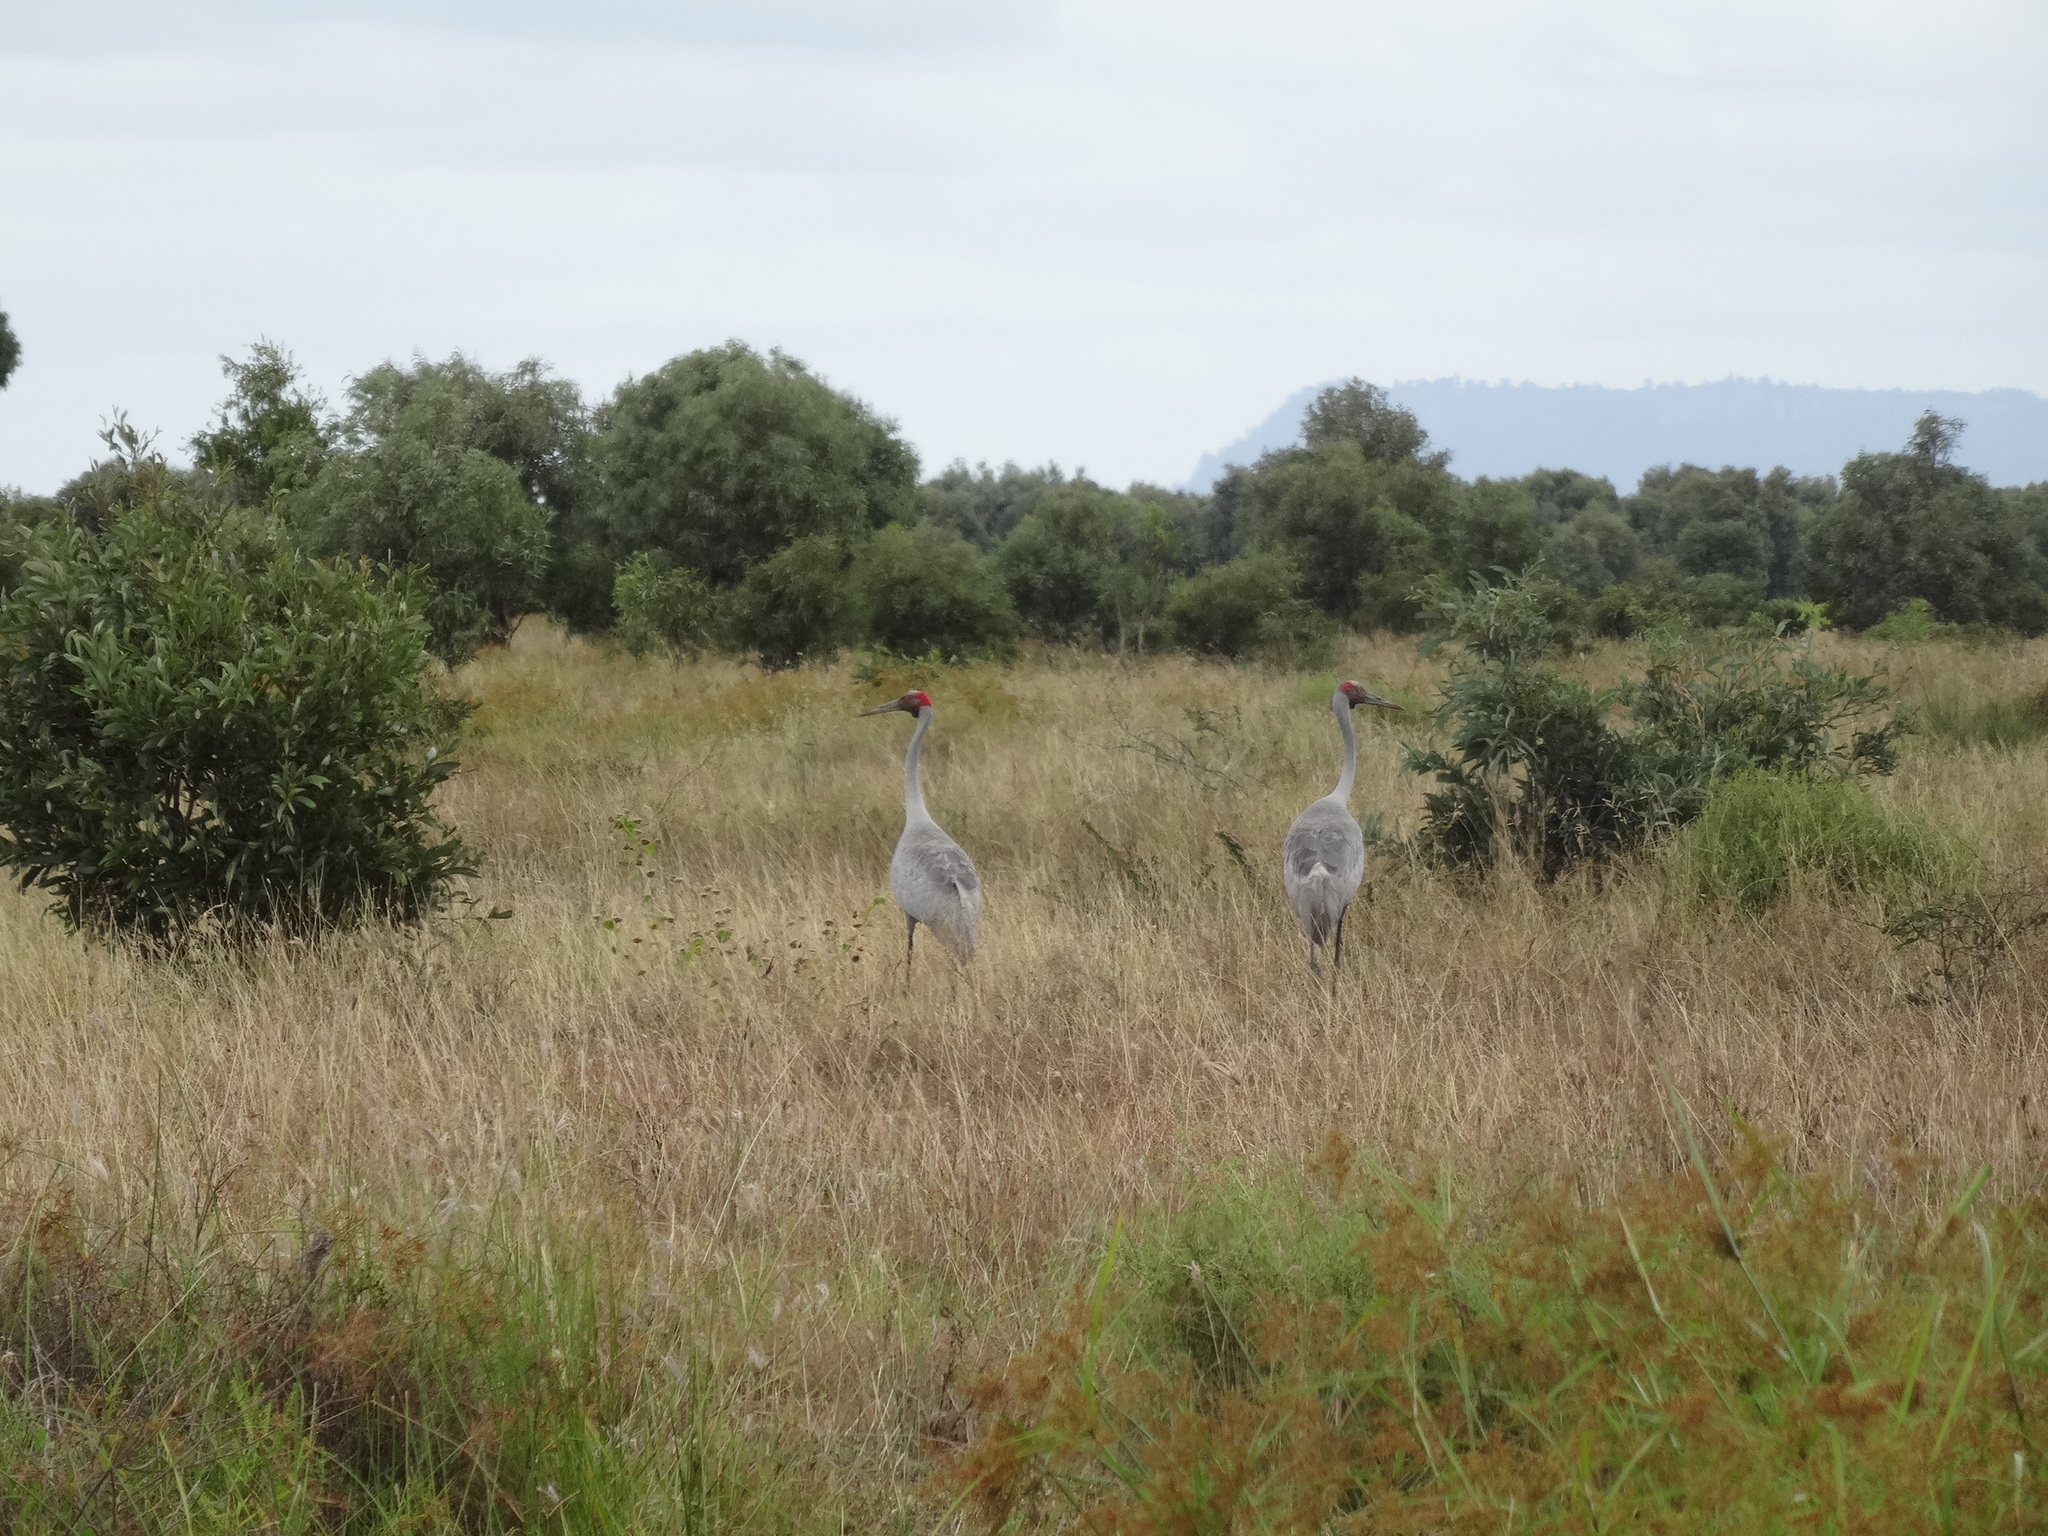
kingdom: Animalia
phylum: Chordata
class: Aves
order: Gruiformes
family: Gruidae
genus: Grus
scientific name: Grus rubicunda
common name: Brolga
